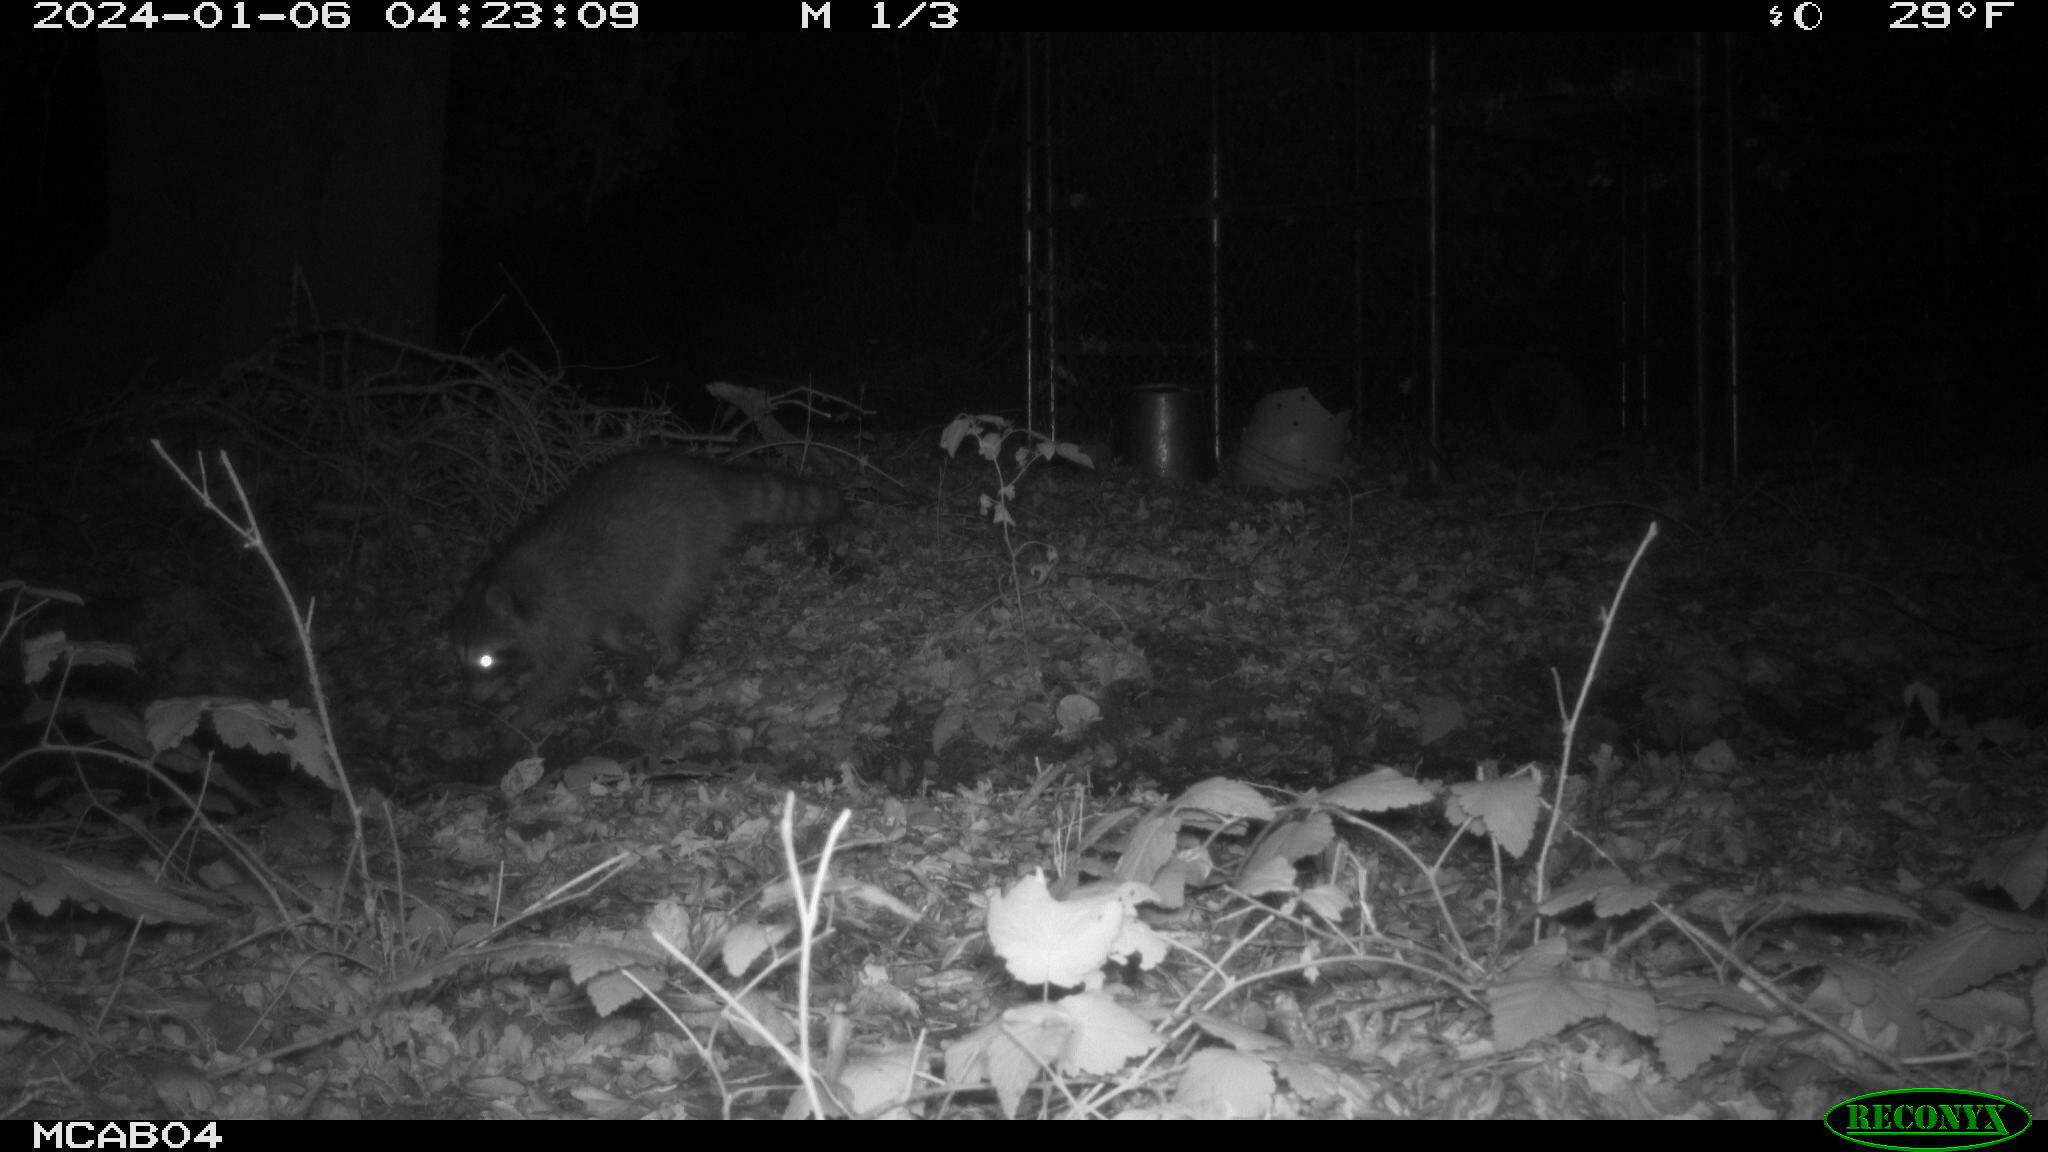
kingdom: Animalia
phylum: Chordata
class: Mammalia
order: Carnivora
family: Procyonidae
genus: Procyon
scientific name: Procyon lotor
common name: Raccoon
